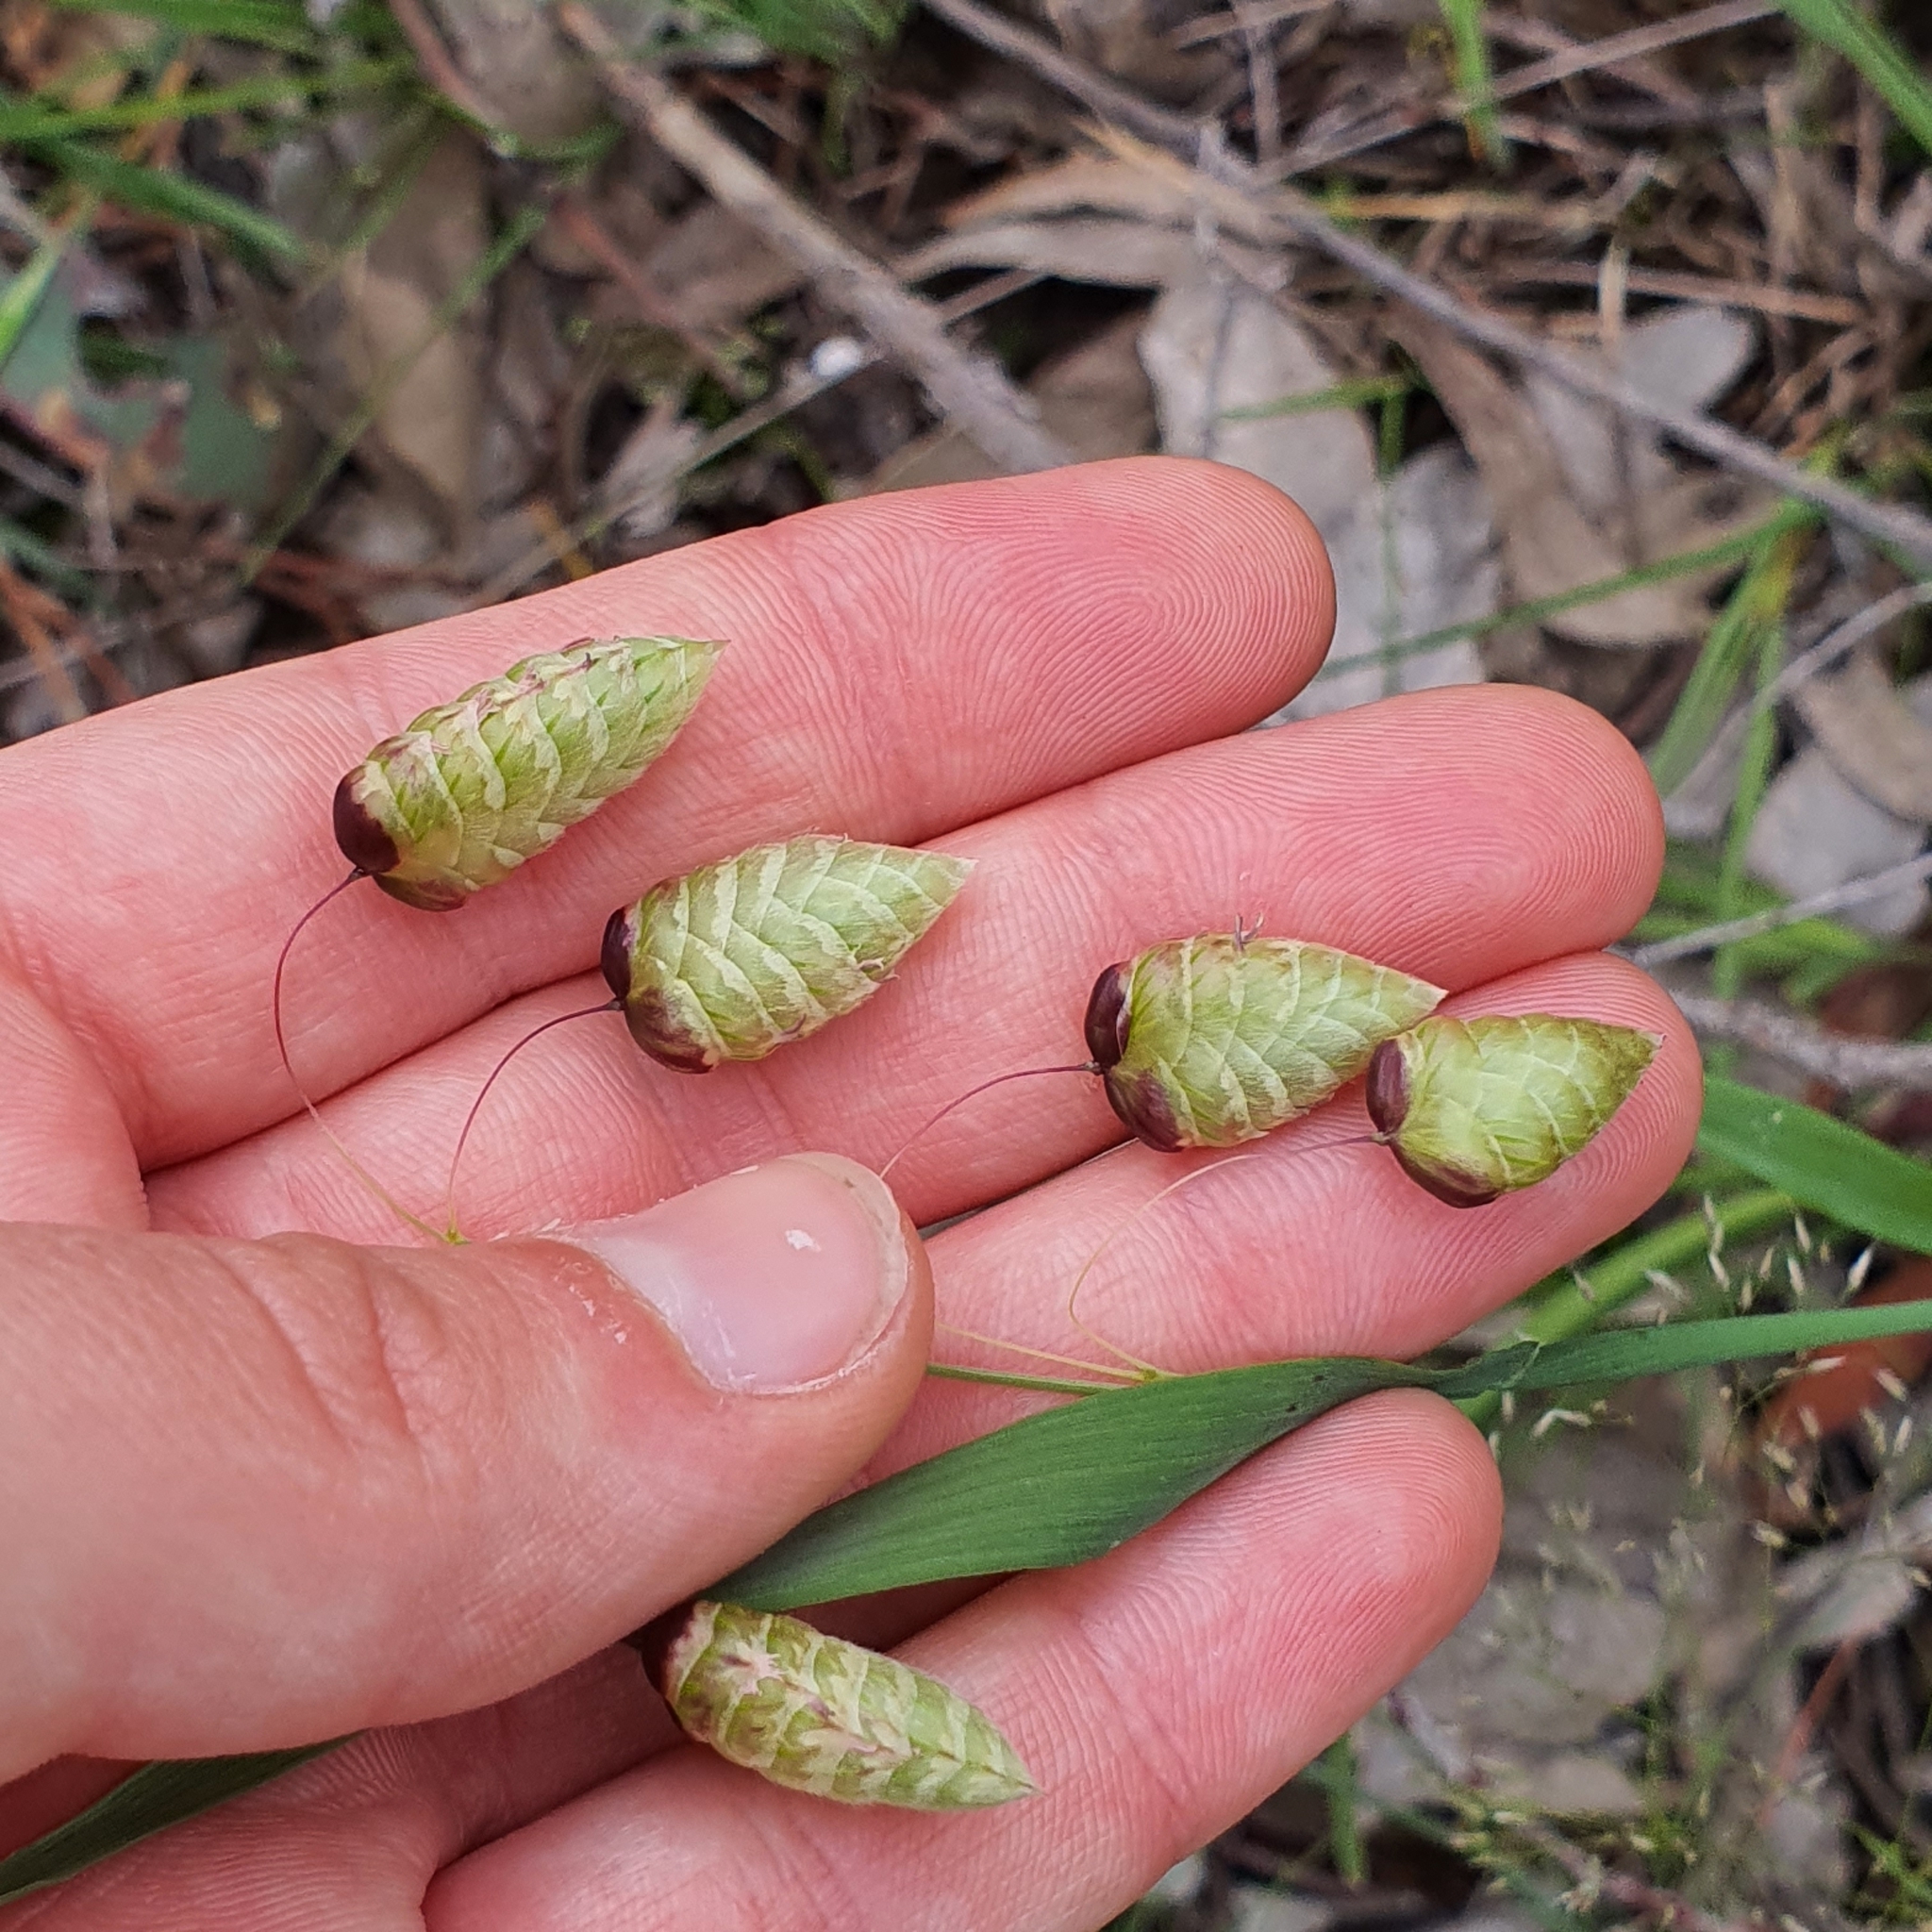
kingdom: Plantae
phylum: Tracheophyta
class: Liliopsida
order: Poales
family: Poaceae
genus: Briza
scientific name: Briza maxima
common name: Big quakinggrass
